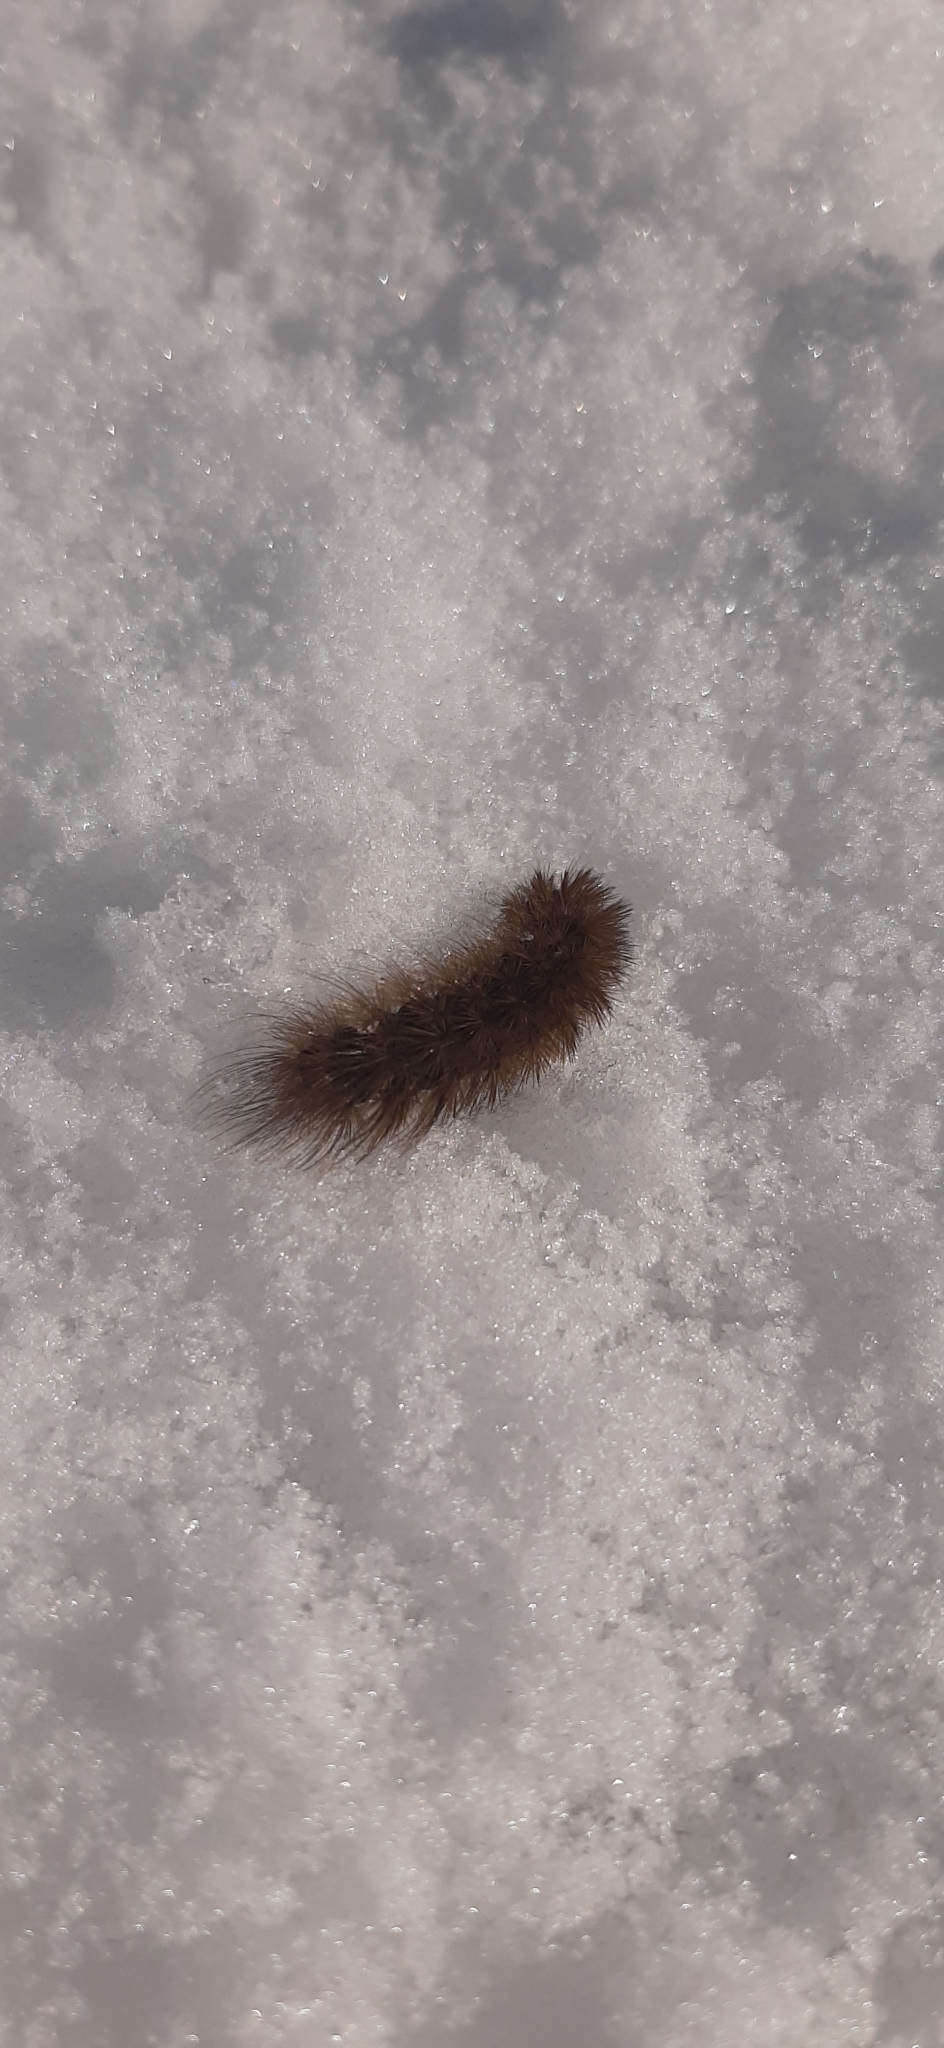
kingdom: Animalia
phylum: Arthropoda
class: Insecta
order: Lepidoptera
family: Erebidae
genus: Phragmatobia
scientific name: Phragmatobia fuliginosa
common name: Ruby tiger
